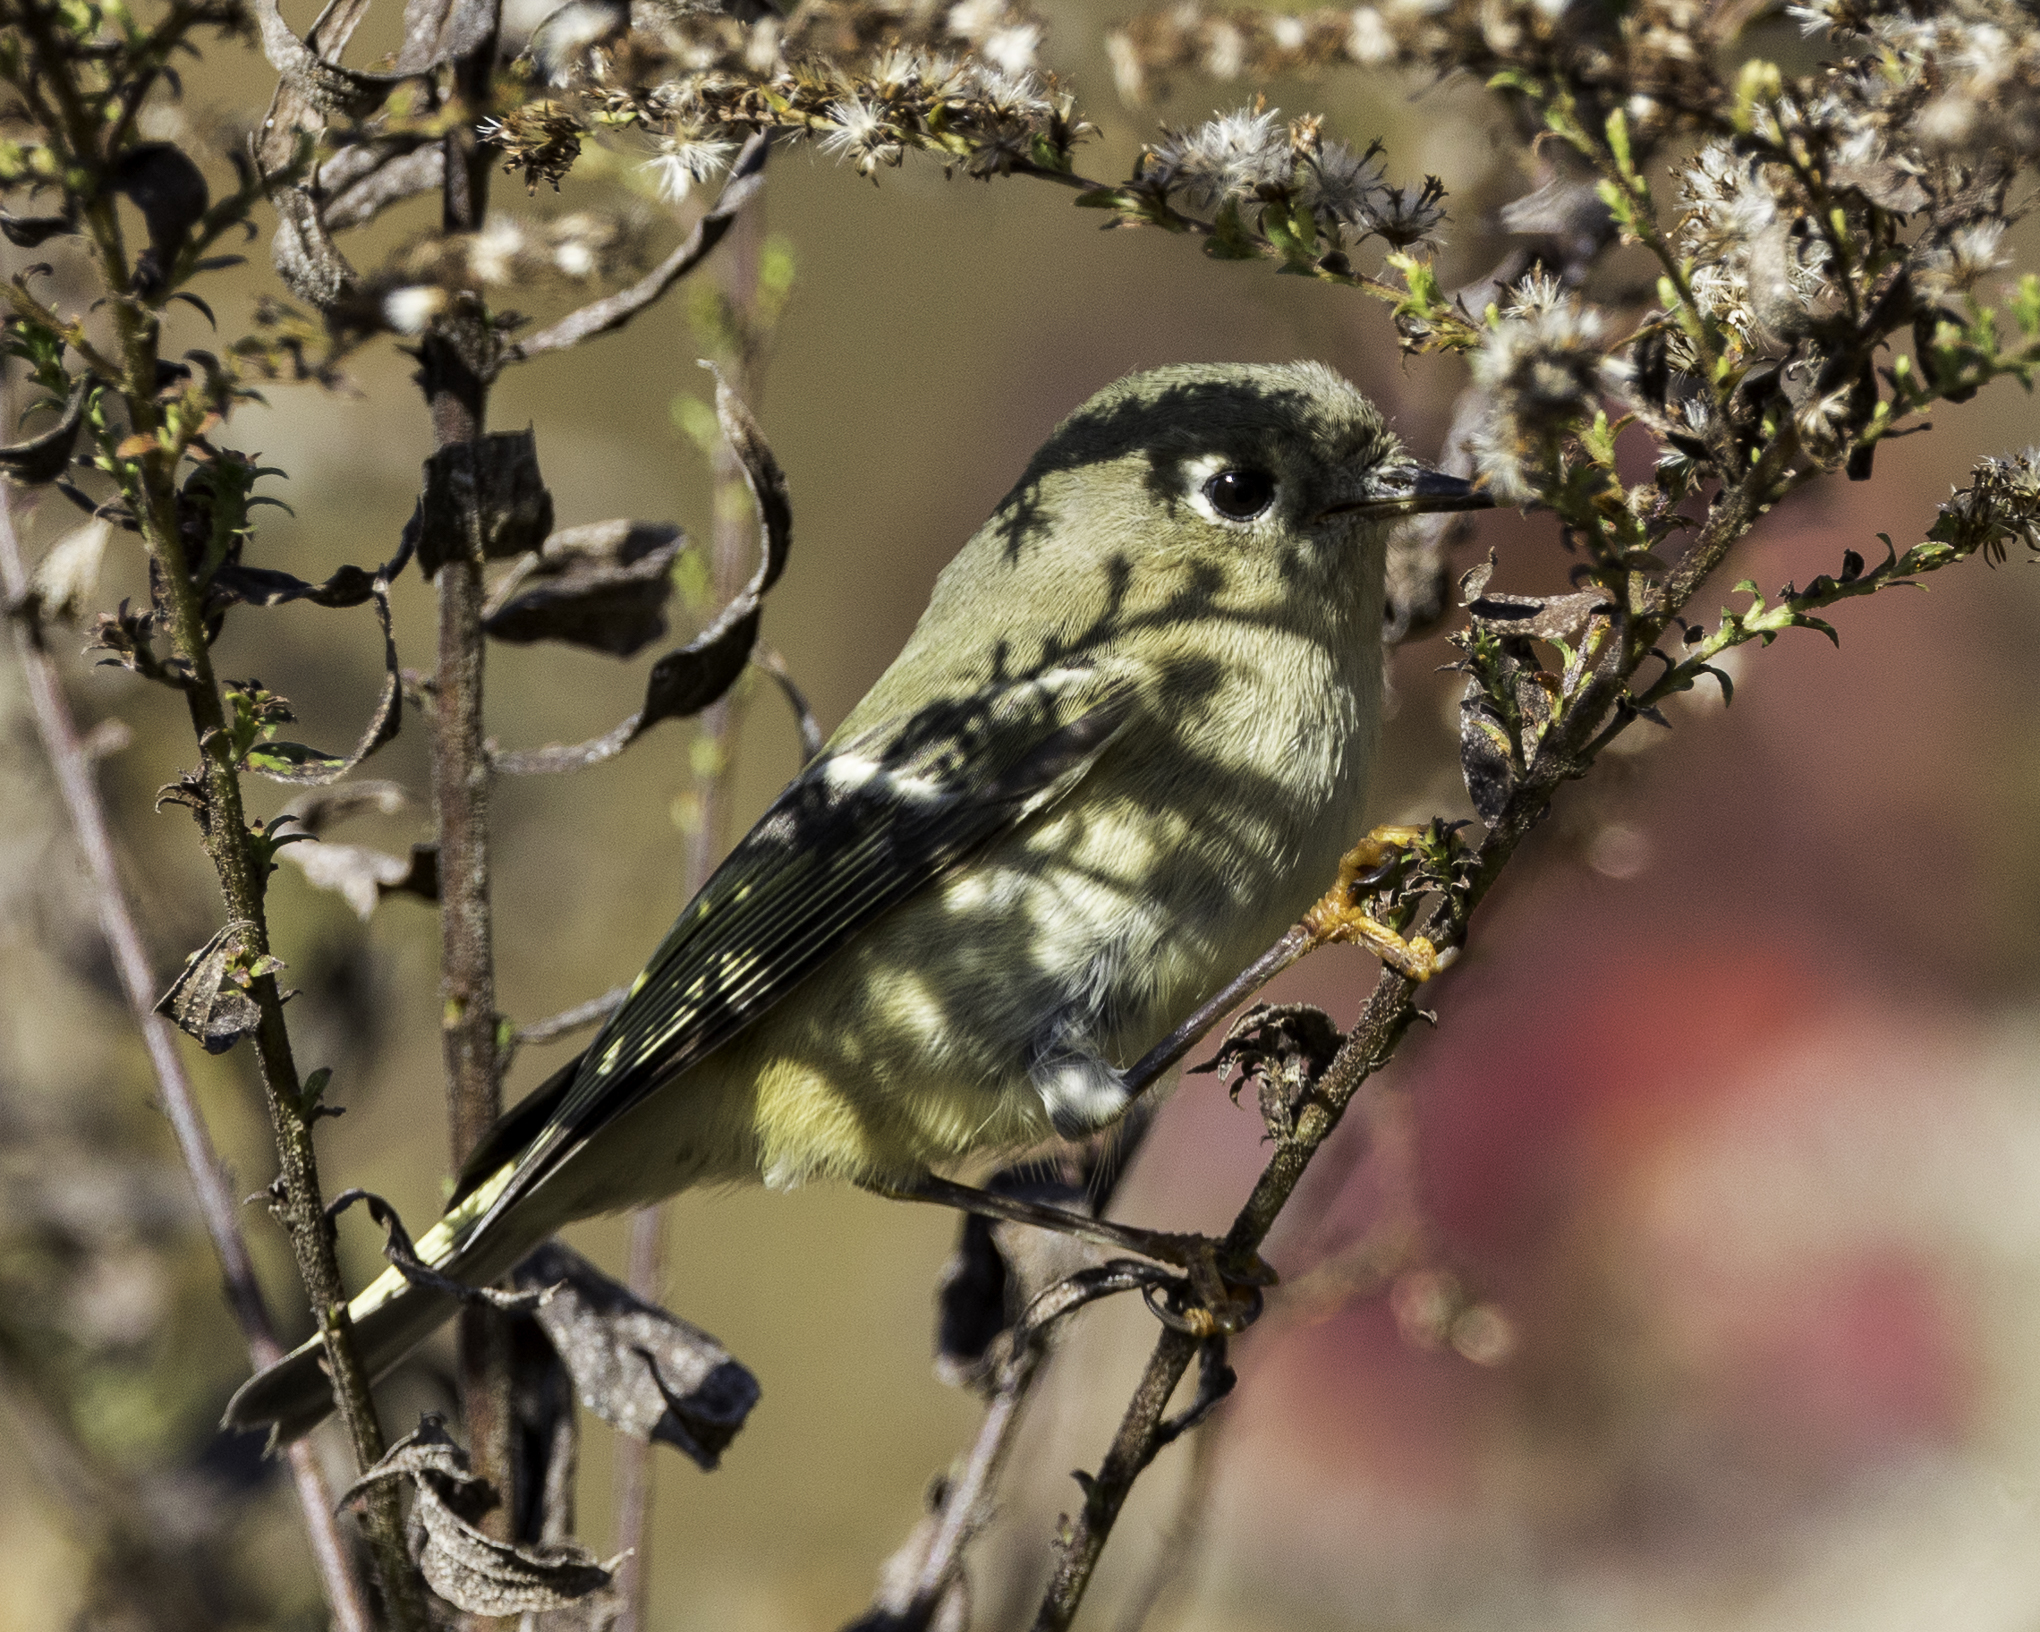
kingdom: Animalia
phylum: Chordata
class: Aves
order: Passeriformes
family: Regulidae
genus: Regulus
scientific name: Regulus calendula
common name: Ruby-crowned kinglet
